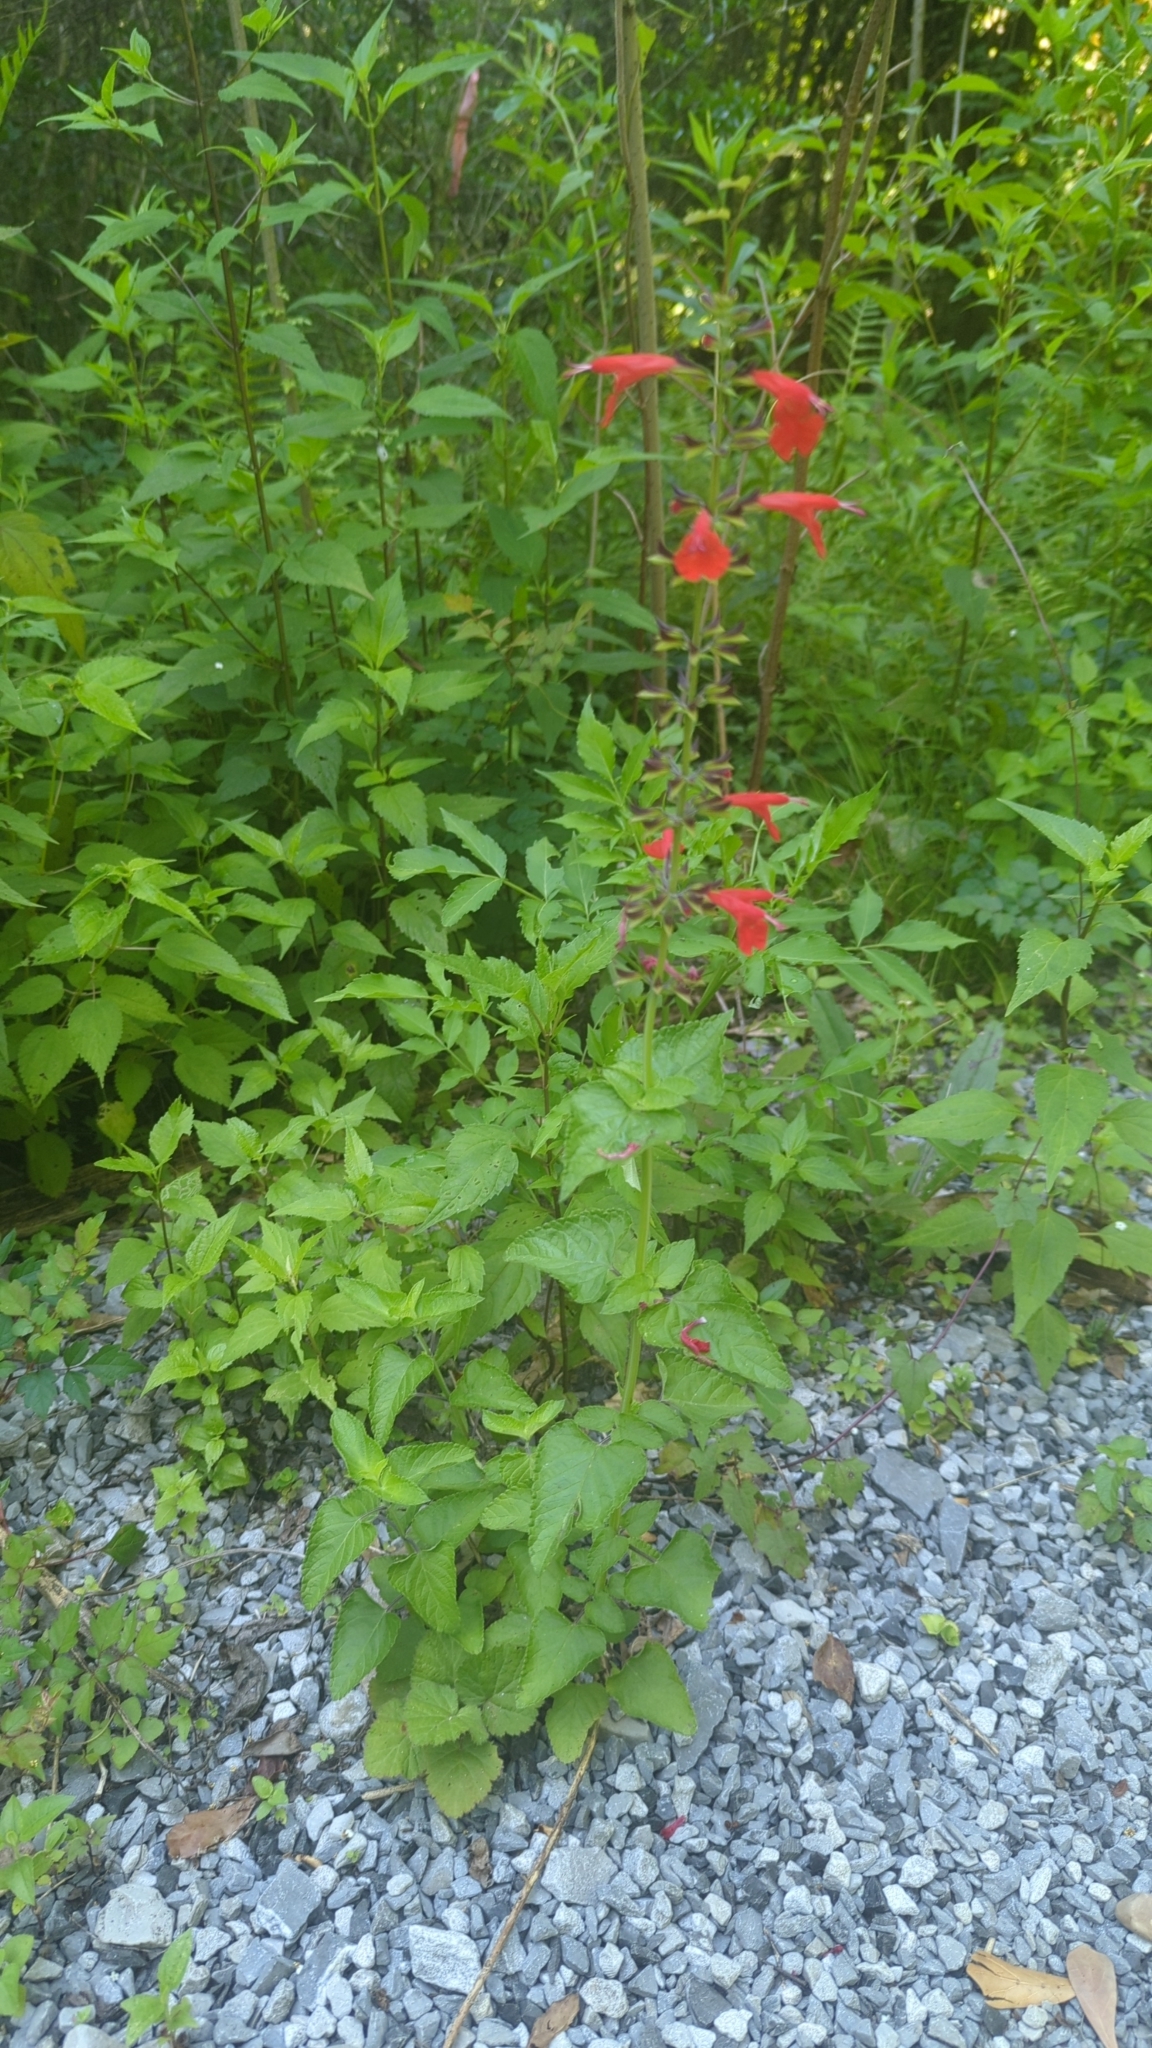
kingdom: Plantae
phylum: Tracheophyta
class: Magnoliopsida
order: Lamiales
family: Lamiaceae
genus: Salvia
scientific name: Salvia coccinea
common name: Blood sage
